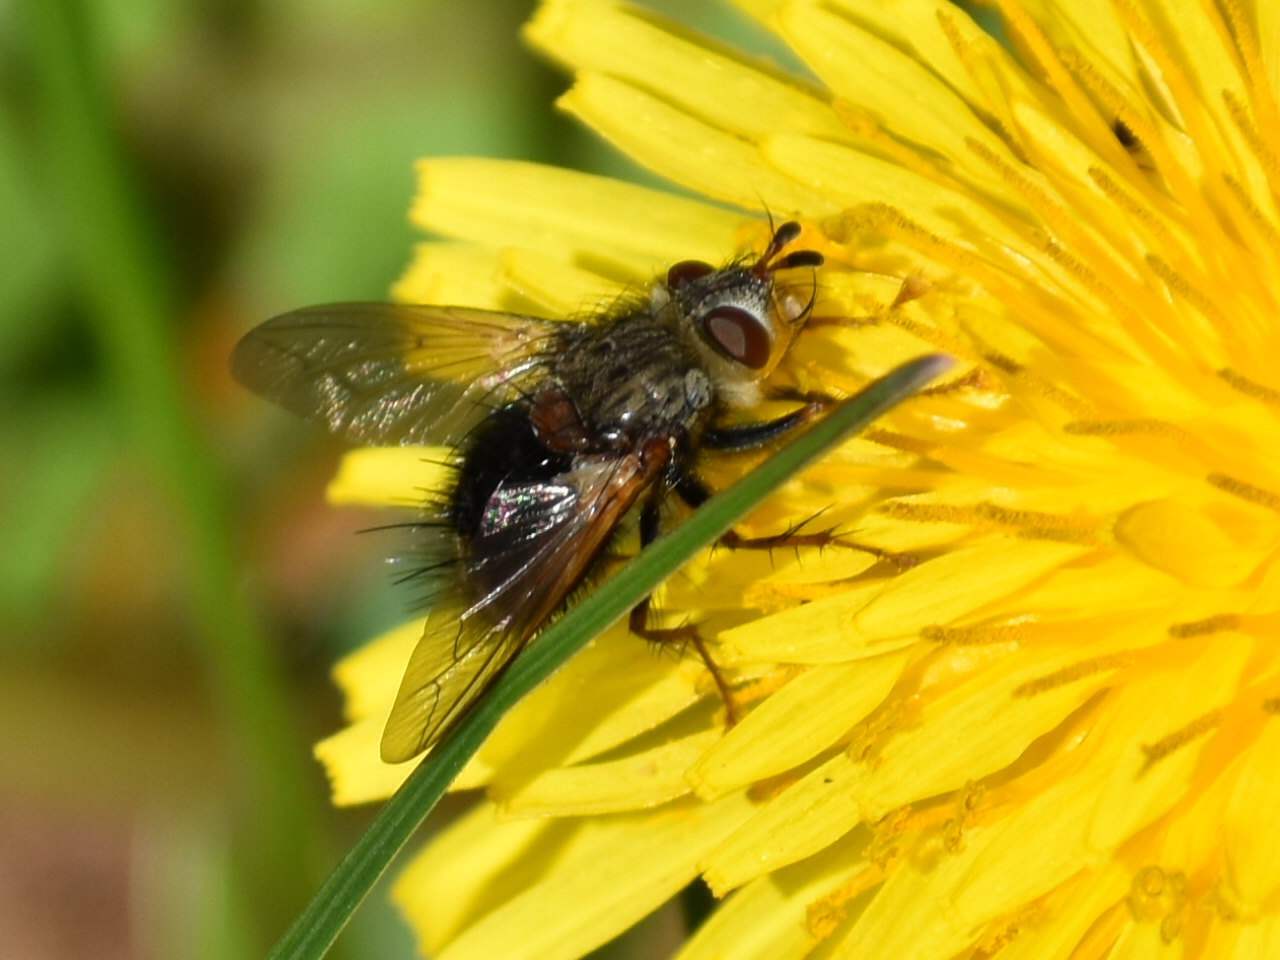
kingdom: Animalia
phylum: Arthropoda
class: Insecta
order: Diptera
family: Tachinidae
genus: Epalpus
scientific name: Epalpus signifer
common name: Early tachinid fly
